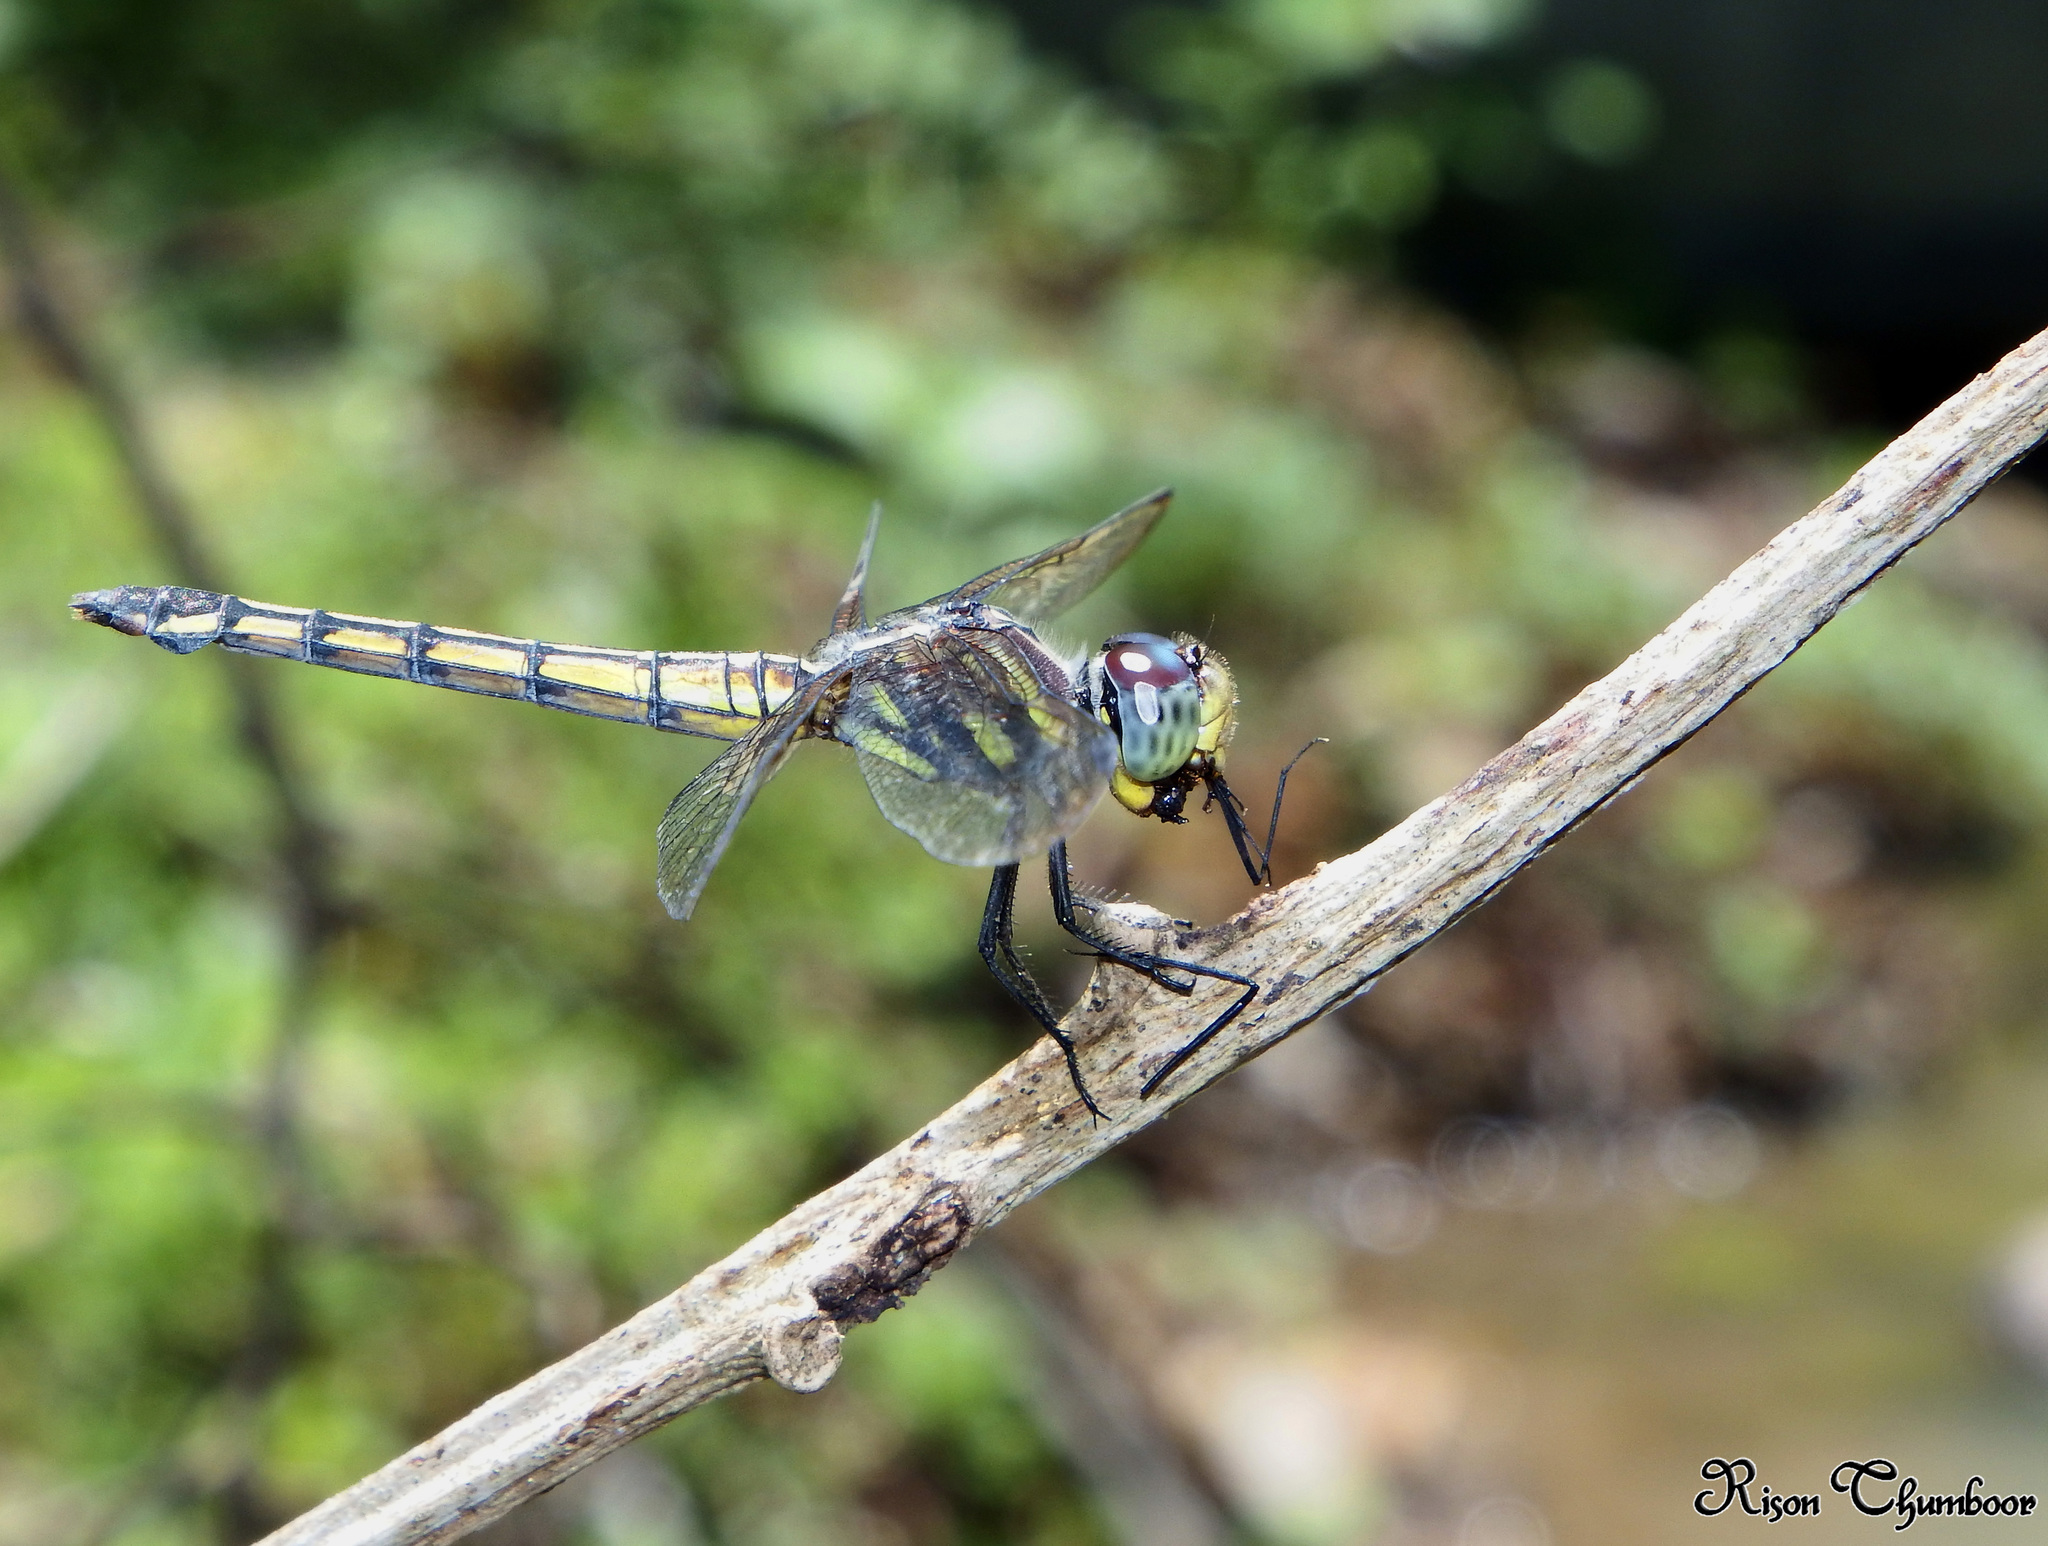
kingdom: Animalia
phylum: Arthropoda
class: Insecta
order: Odonata
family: Libellulidae
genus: Potamarcha
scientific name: Potamarcha congener
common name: Blue chaser
